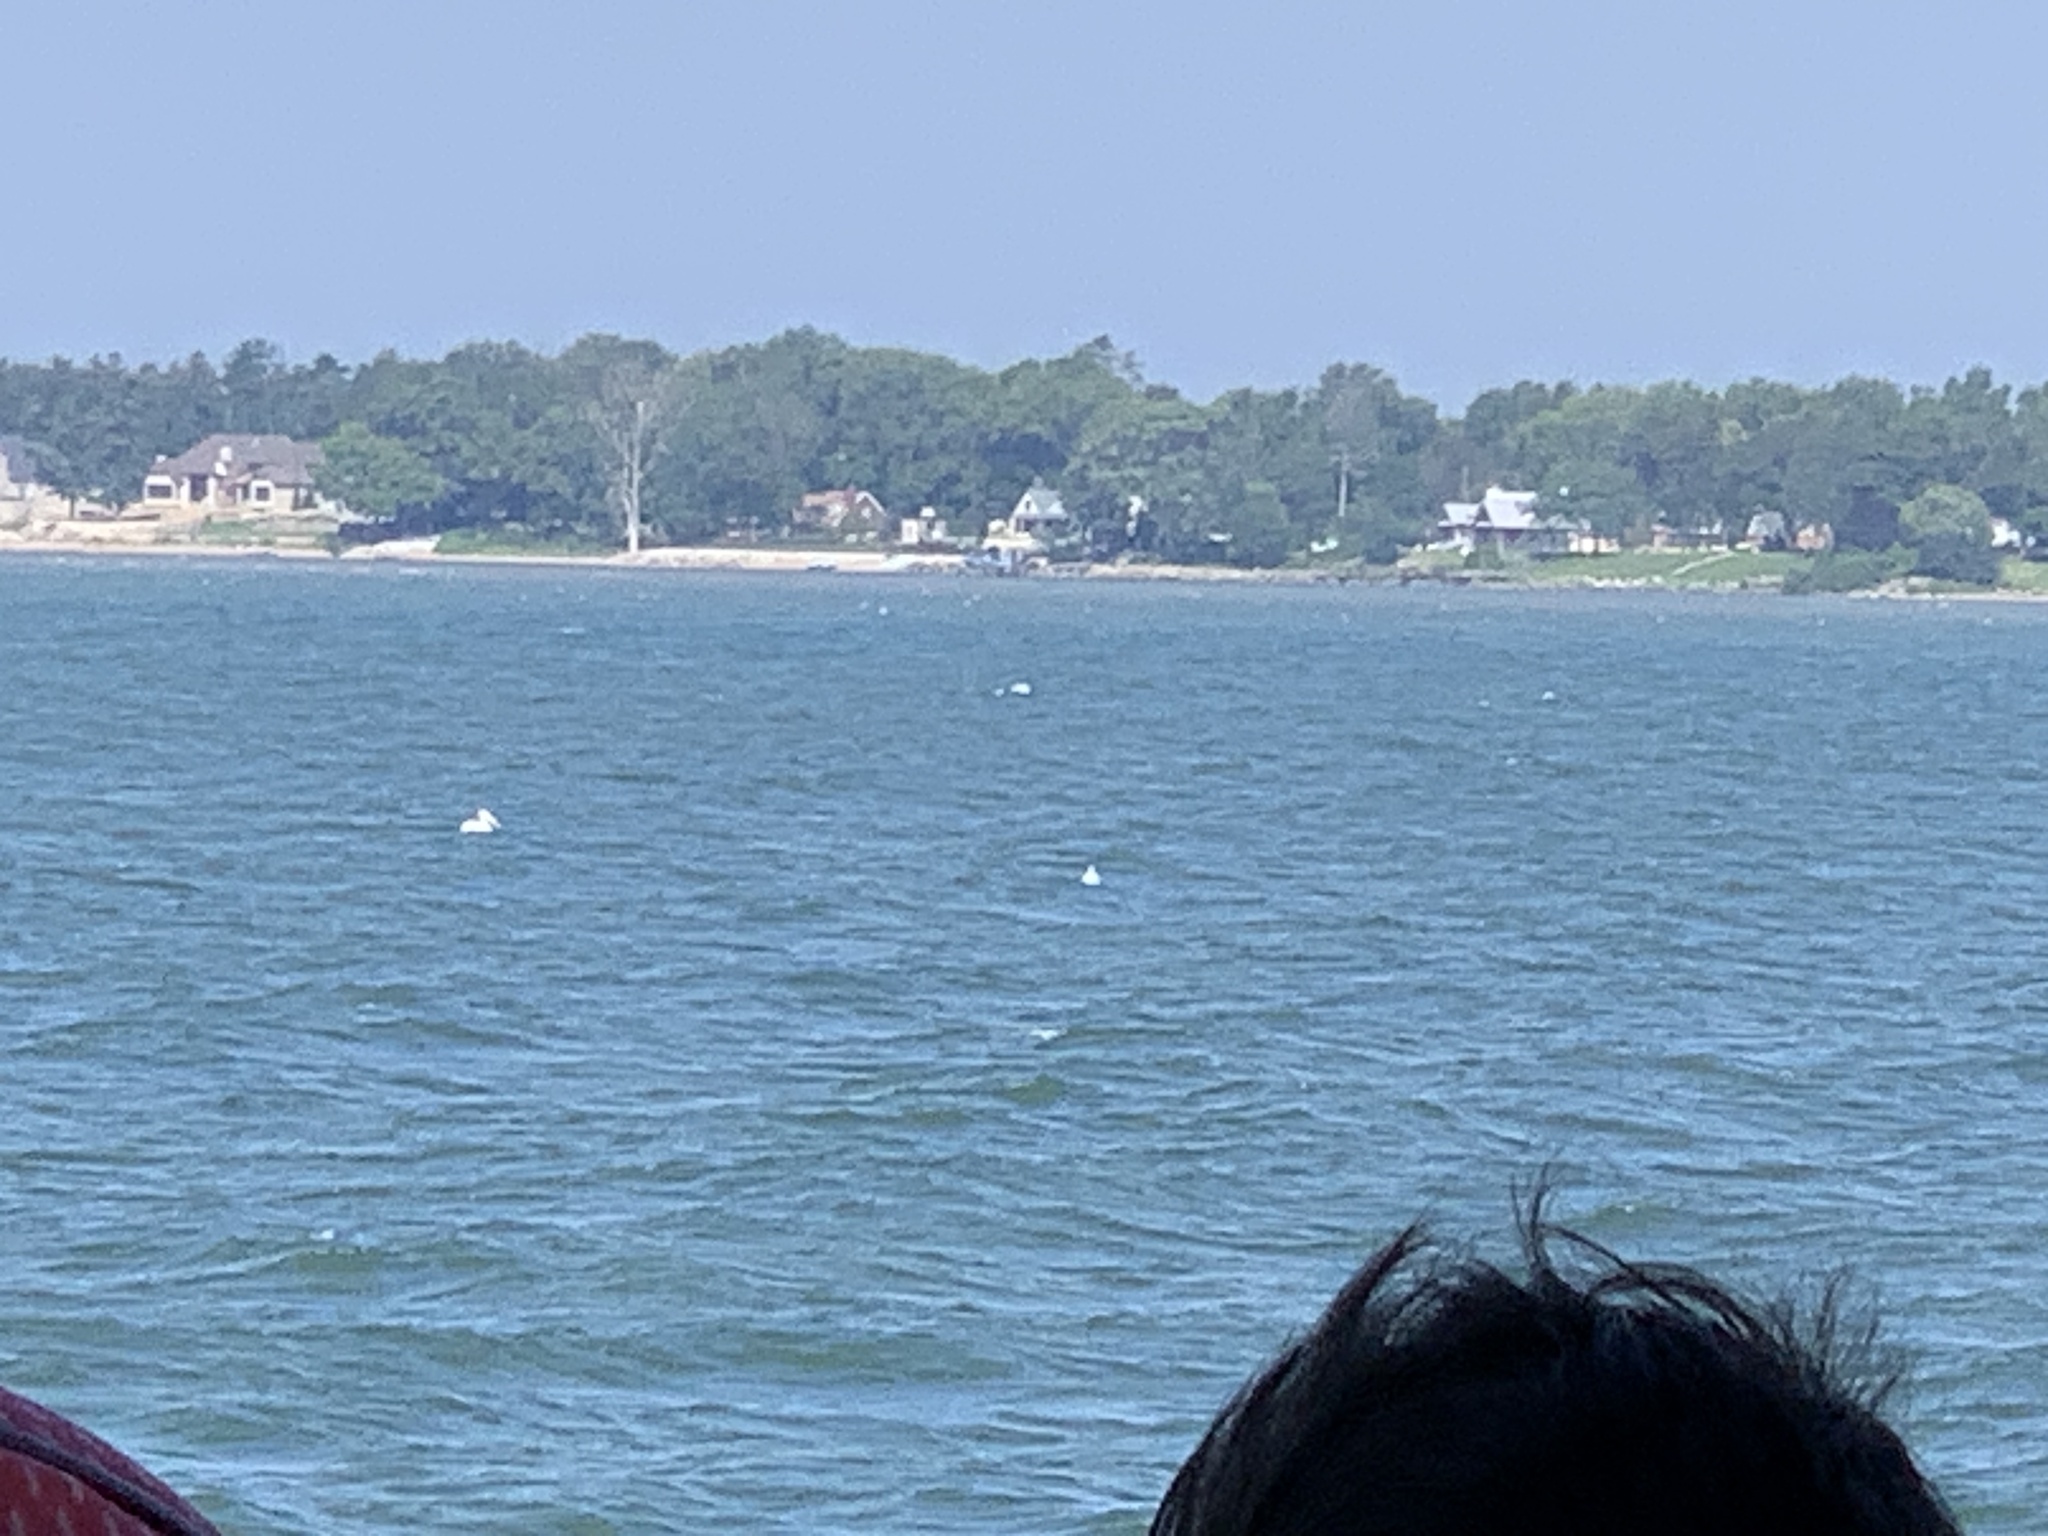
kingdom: Animalia
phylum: Chordata
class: Aves
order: Pelecaniformes
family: Pelecanidae
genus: Pelecanus
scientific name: Pelecanus erythrorhynchos
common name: American white pelican
